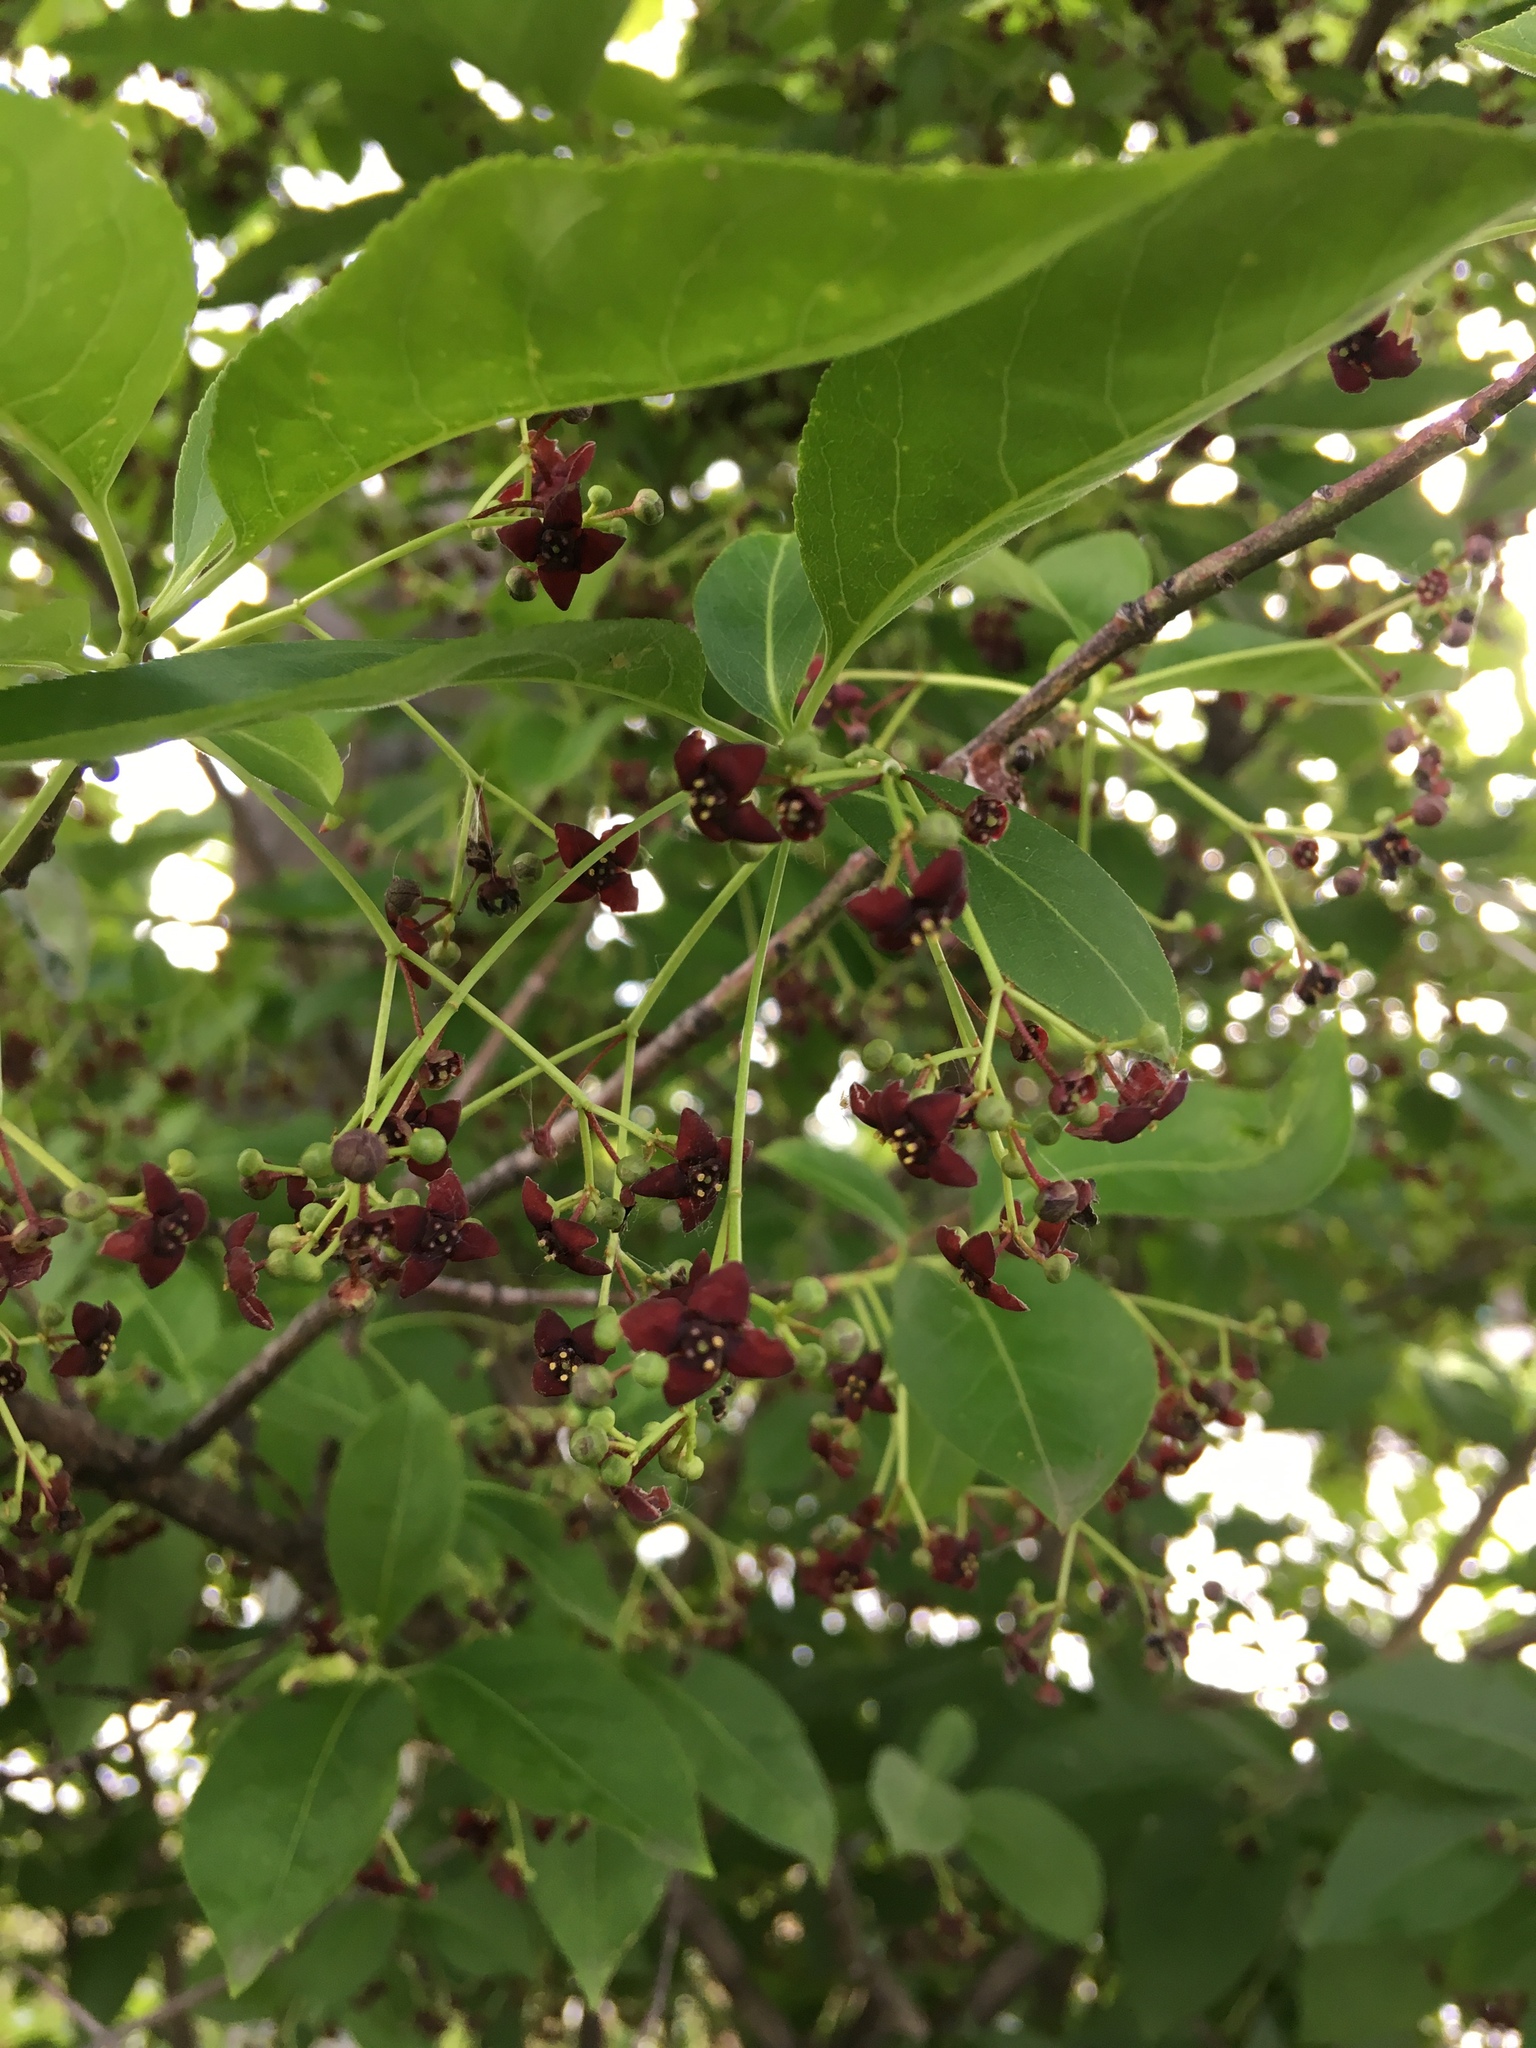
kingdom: Plantae
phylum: Tracheophyta
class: Magnoliopsida
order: Celastrales
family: Celastraceae
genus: Euonymus
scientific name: Euonymus atropurpureus
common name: Eastern wahoo
